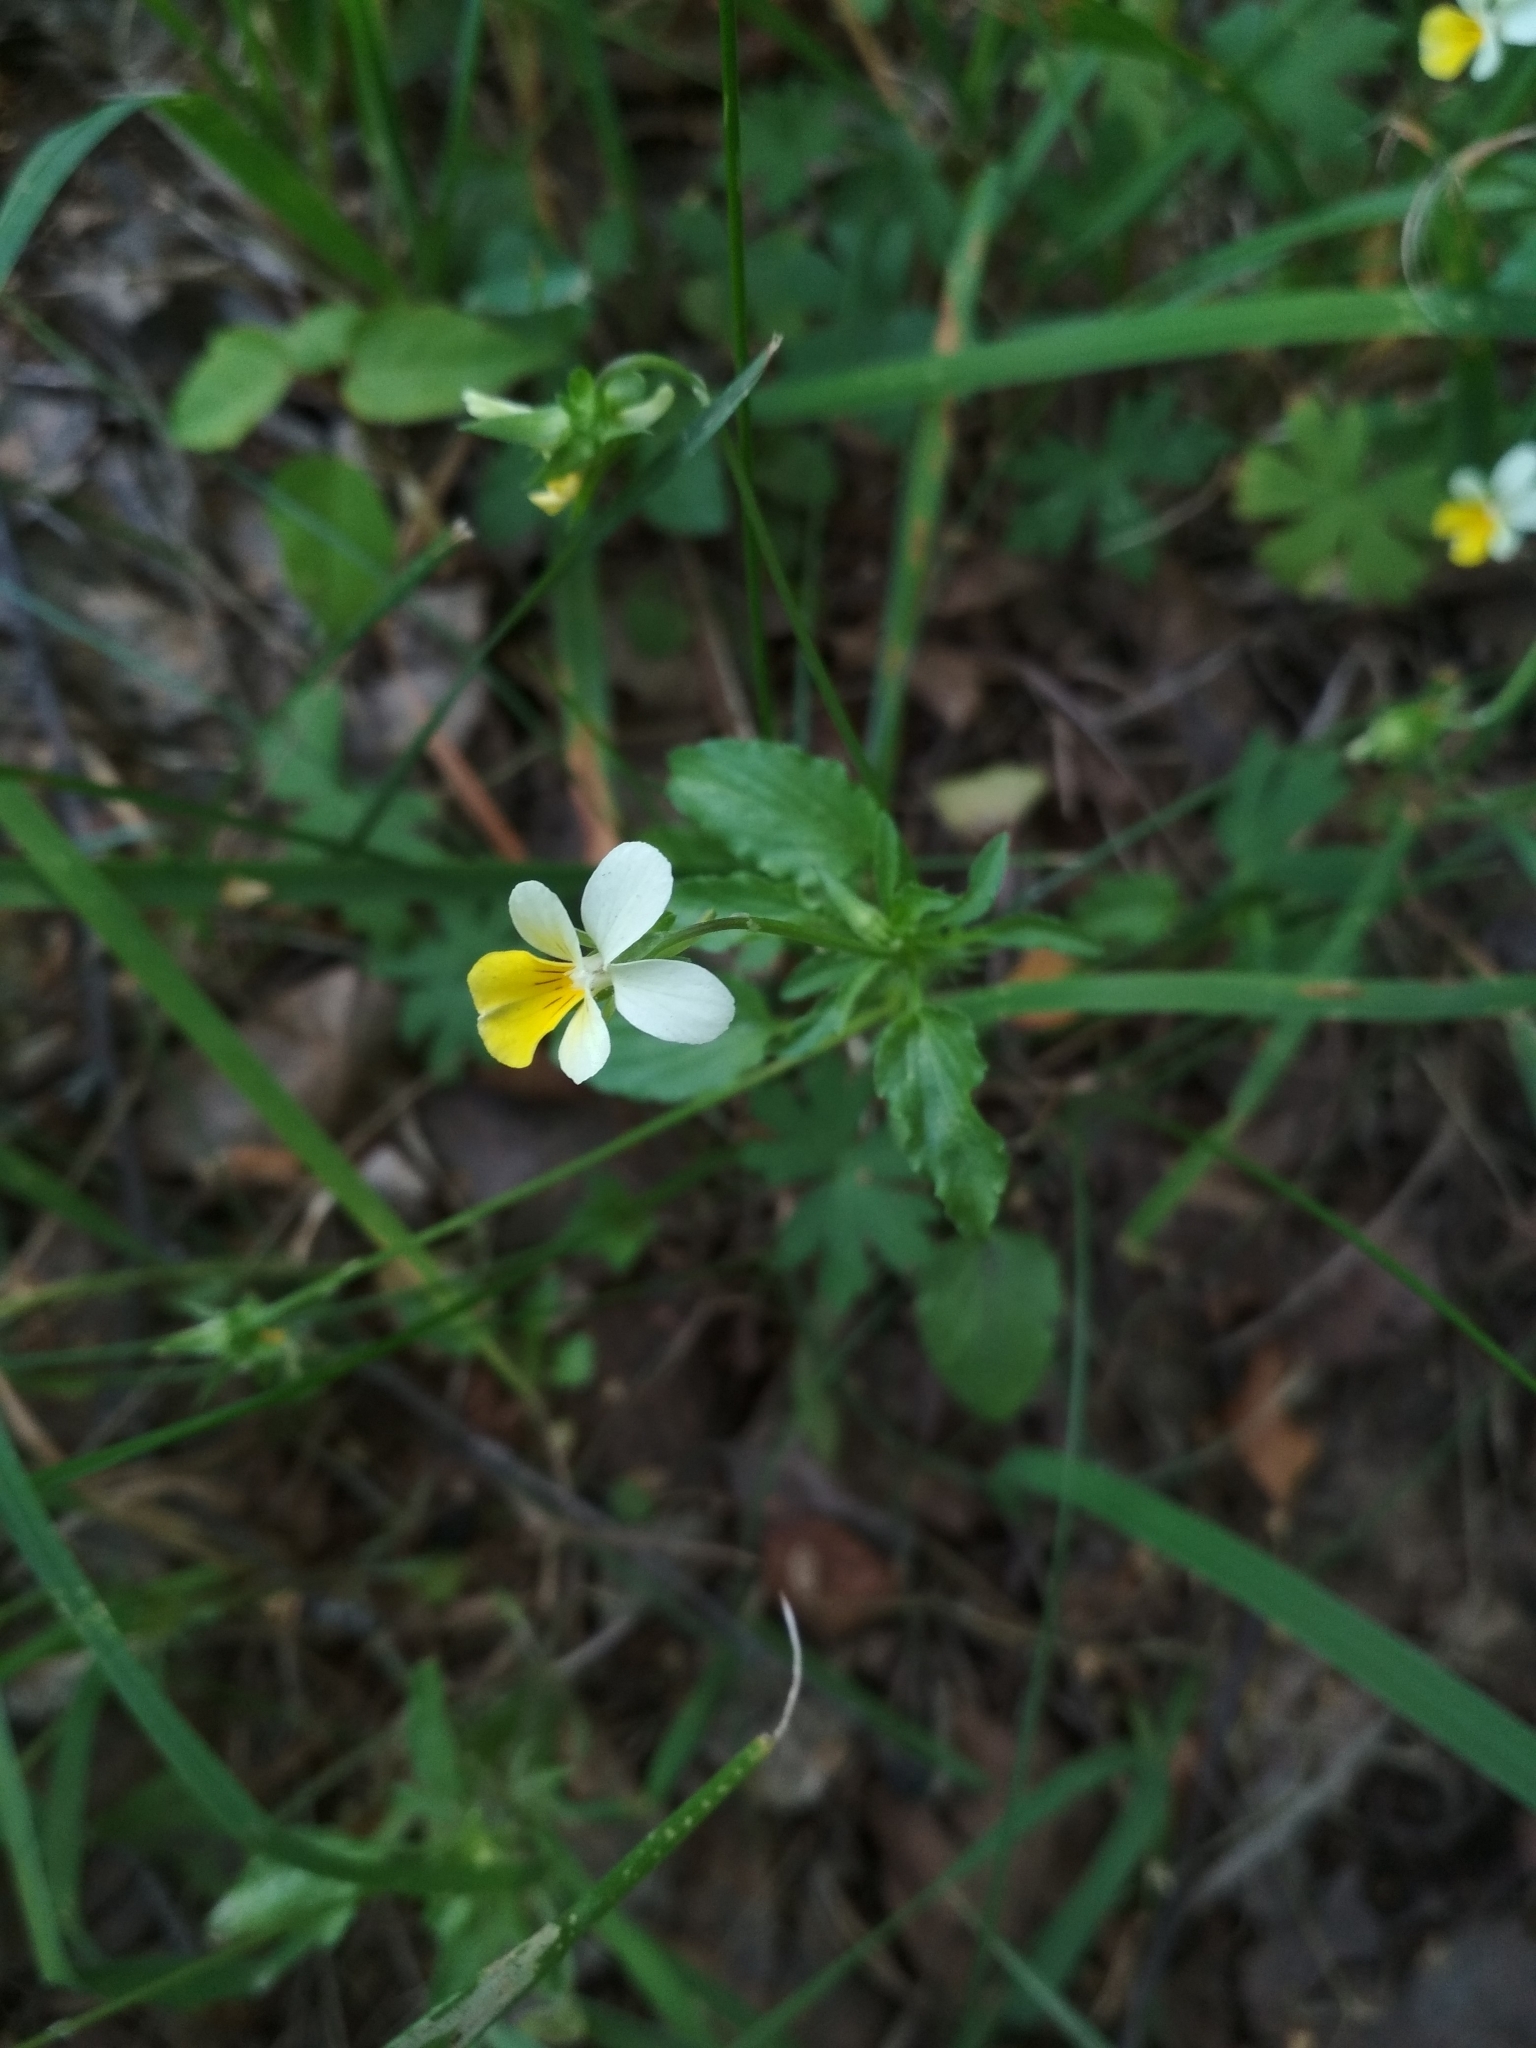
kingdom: Plantae
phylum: Tracheophyta
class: Magnoliopsida
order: Malpighiales
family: Violaceae
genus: Viola
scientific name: Viola arvensis
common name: Field pansy
